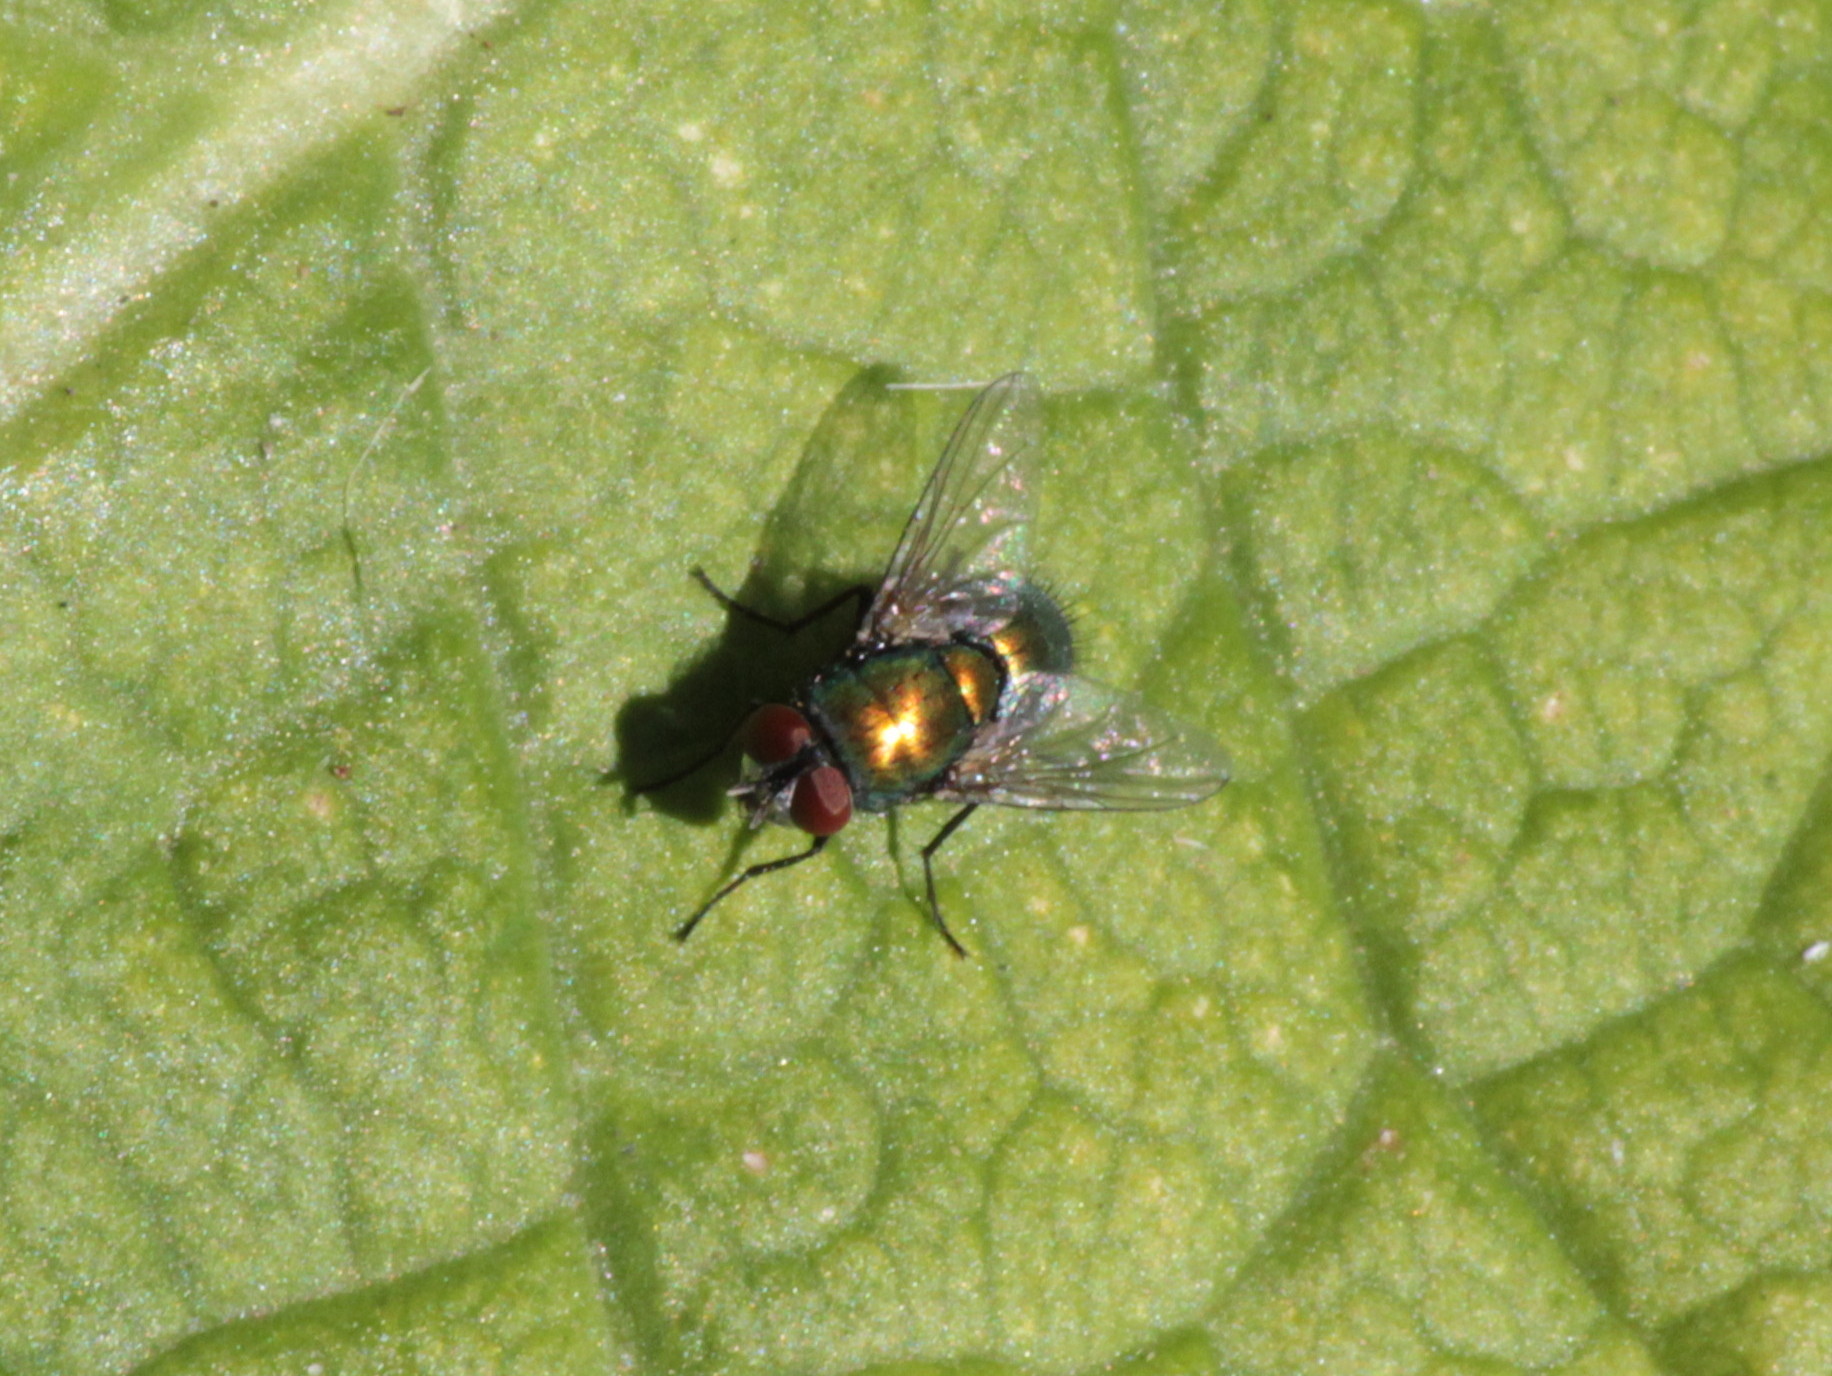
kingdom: Animalia
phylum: Arthropoda
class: Insecta
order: Diptera
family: Calliphoridae
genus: Lucilia
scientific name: Lucilia sericata
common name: Blow fly
